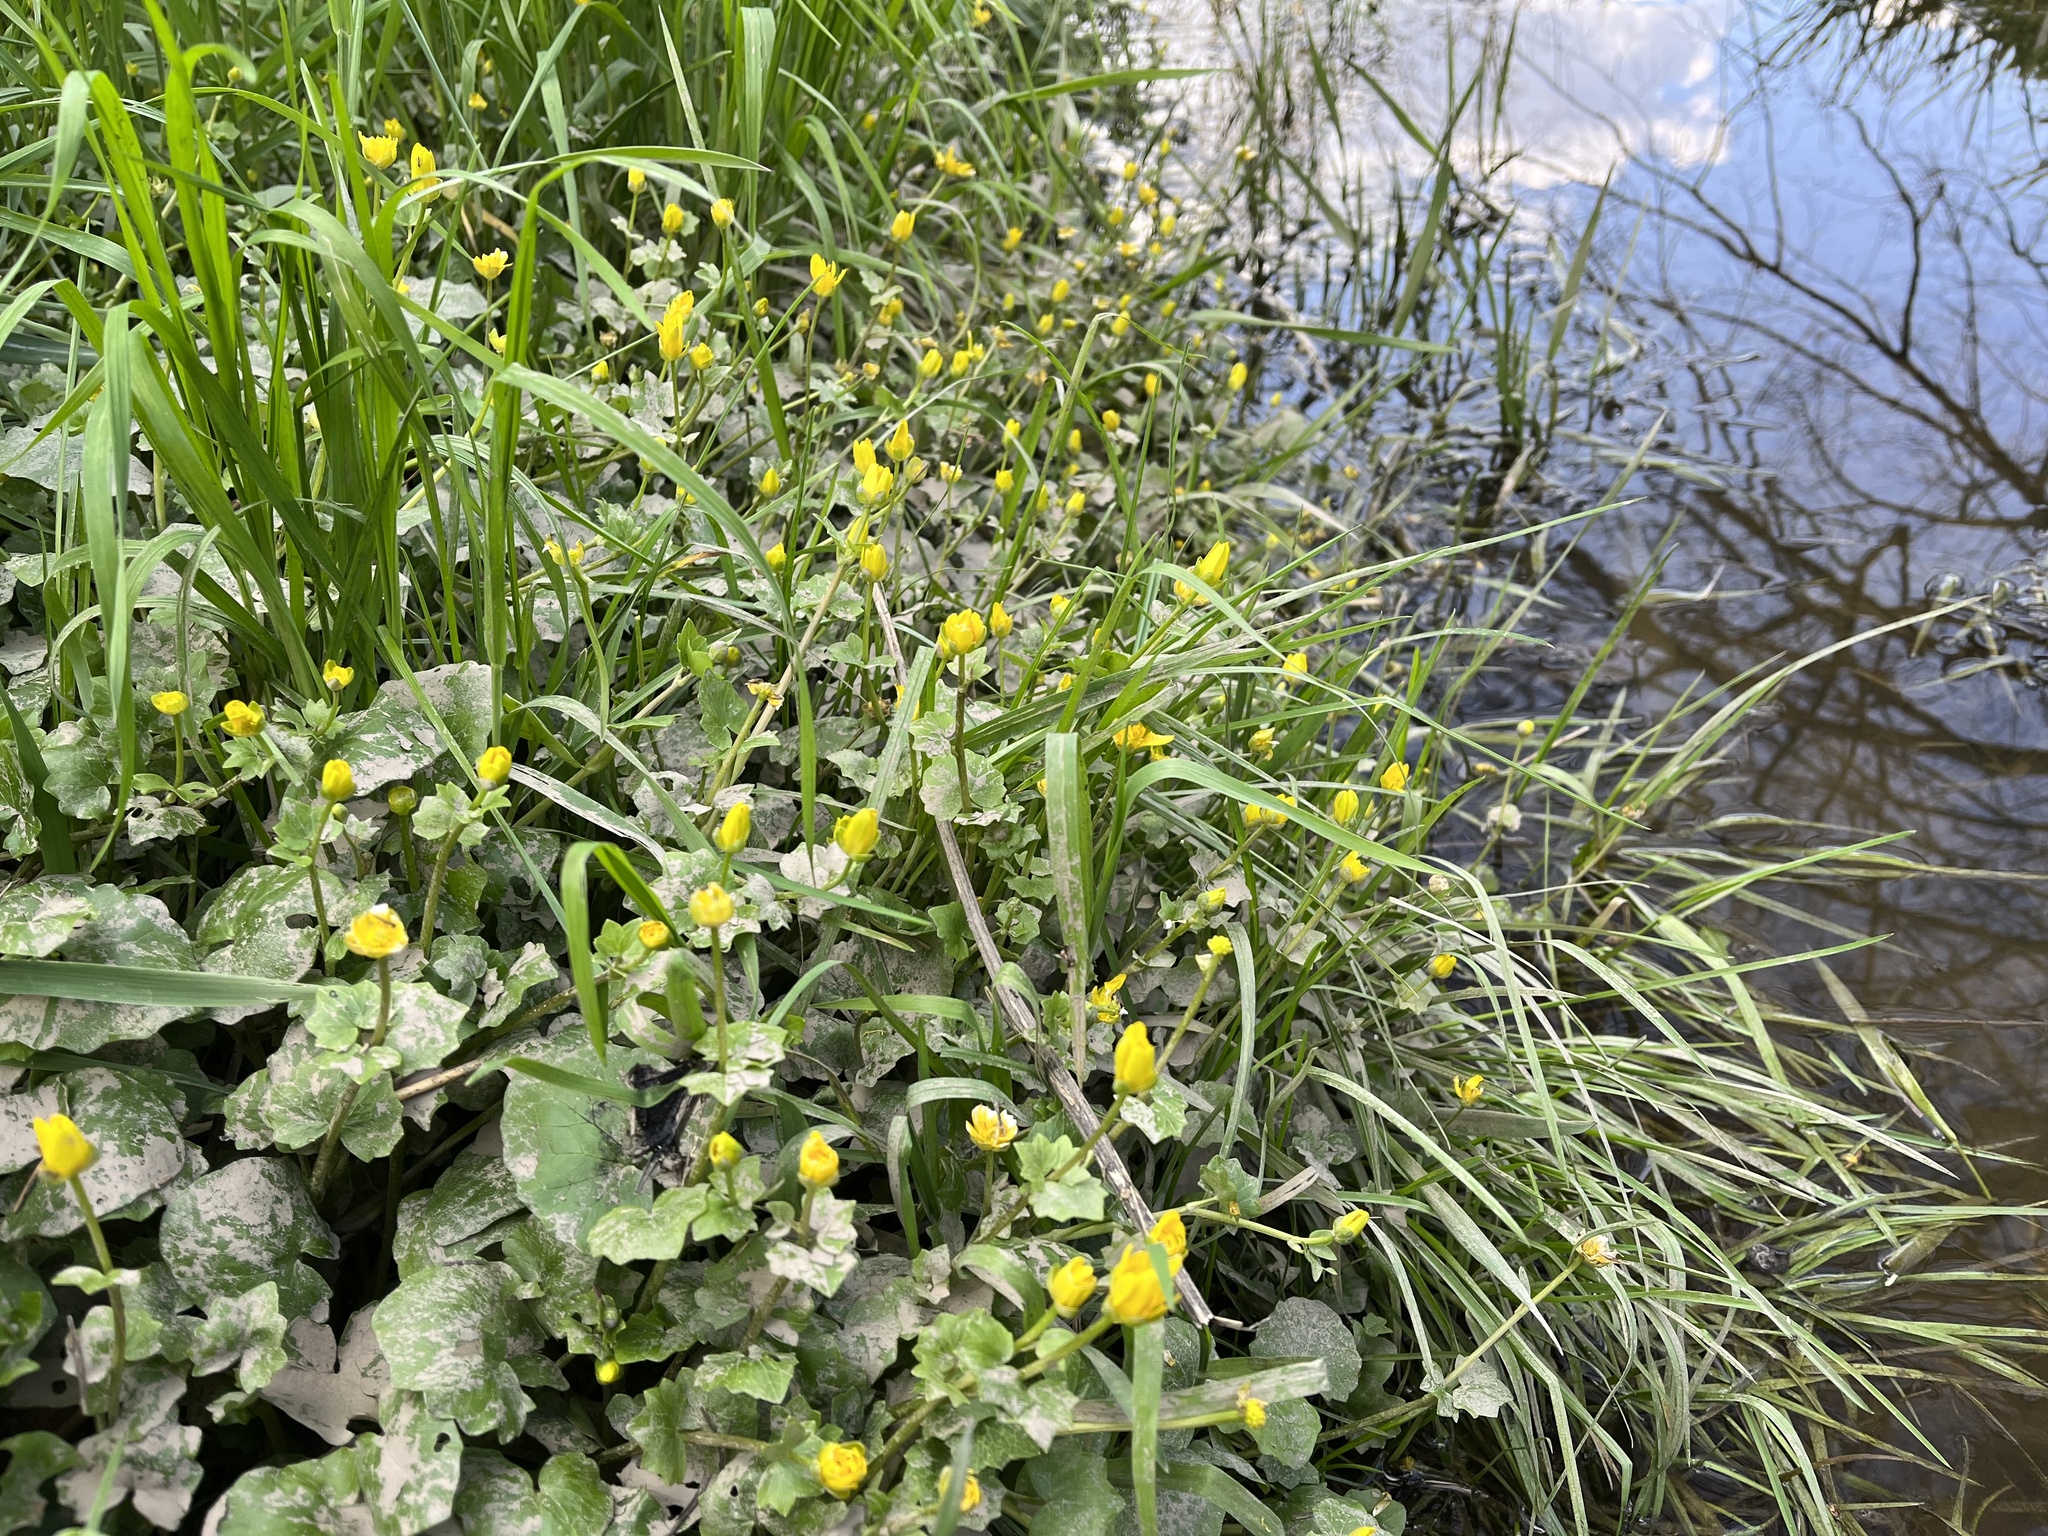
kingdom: Plantae
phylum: Tracheophyta
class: Magnoliopsida
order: Ranunculales
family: Ranunculaceae
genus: Ficaria
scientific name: Ficaria verna
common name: Lesser celandine
